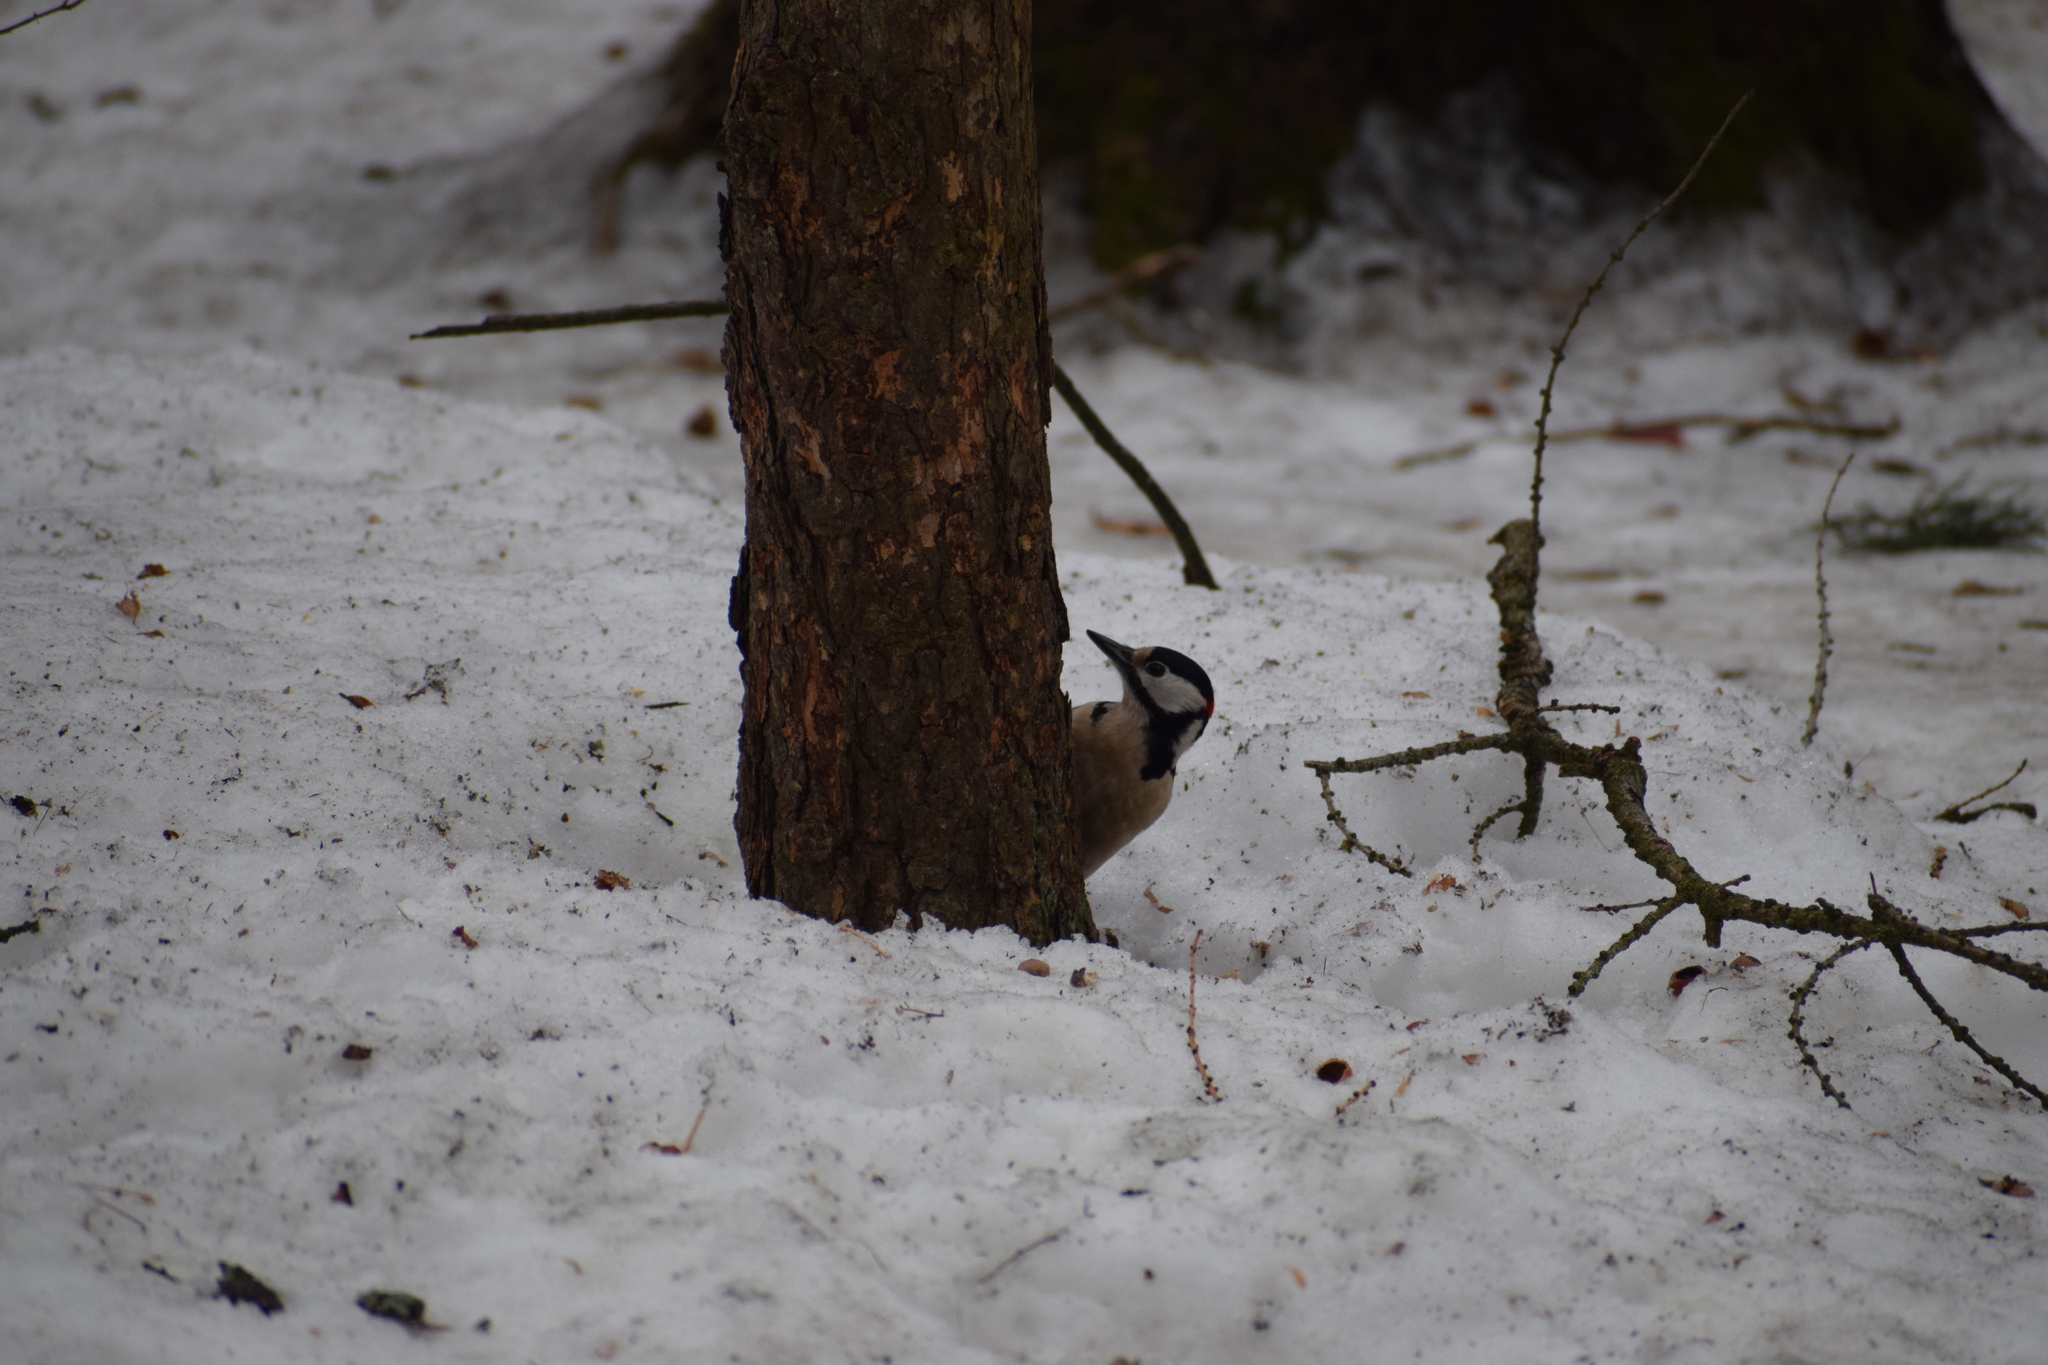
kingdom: Animalia
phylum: Chordata
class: Aves
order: Piciformes
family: Picidae
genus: Dendrocopos
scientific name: Dendrocopos major
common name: Great spotted woodpecker
